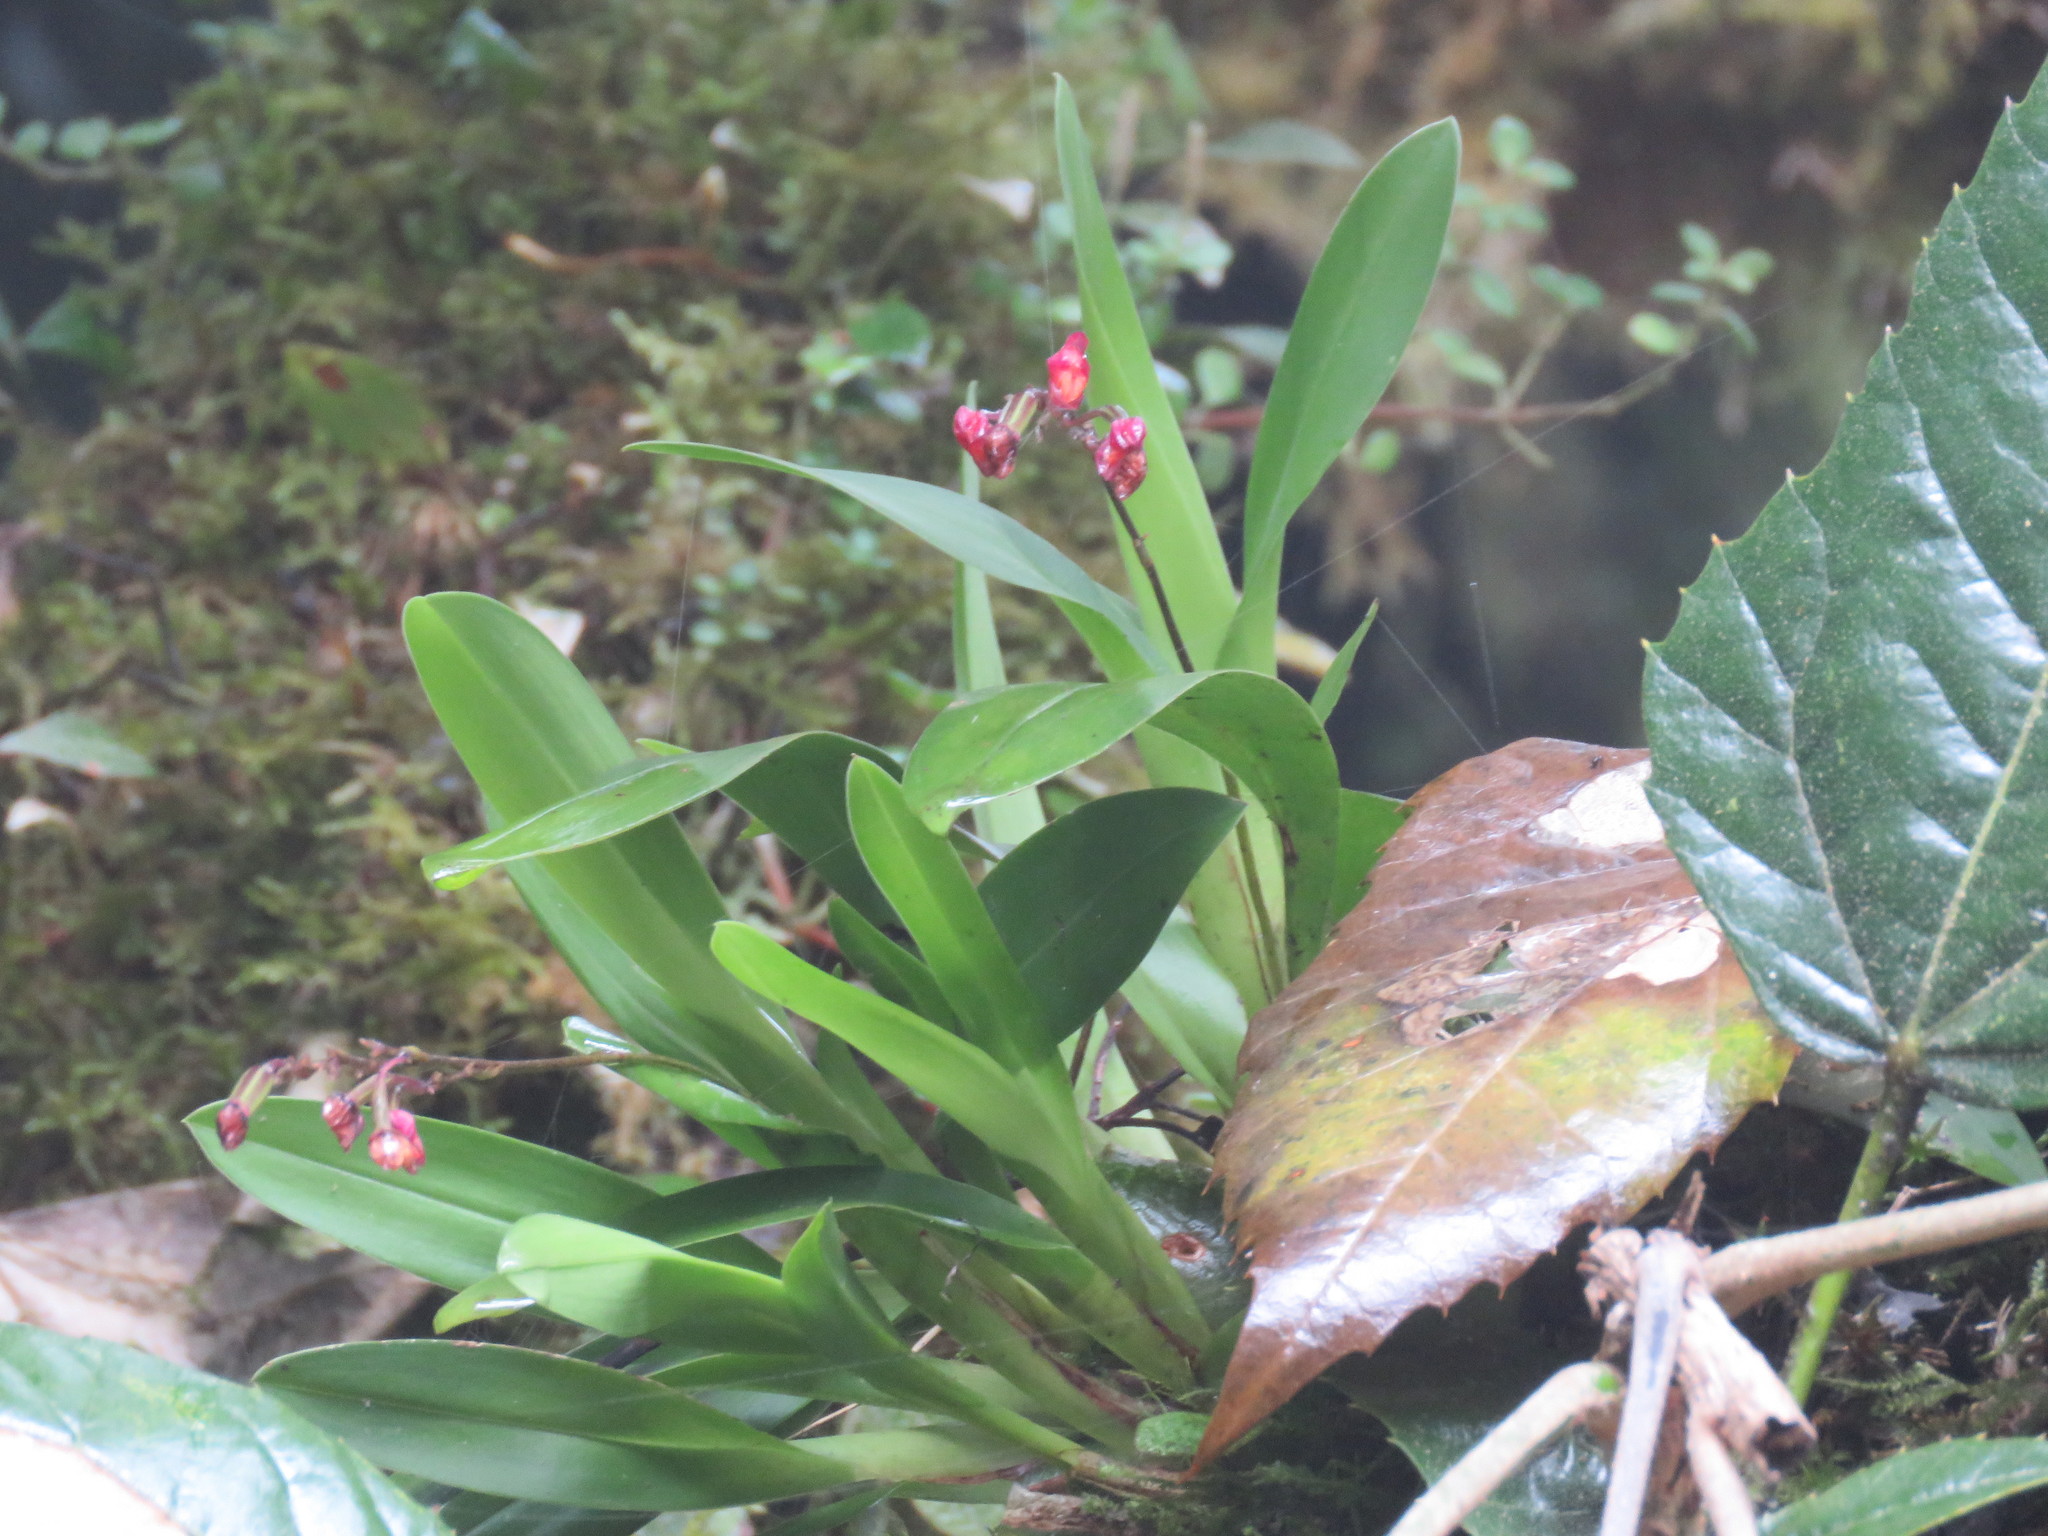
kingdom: Plantae
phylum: Tracheophyta
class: Liliopsida
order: Asparagales
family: Orchidaceae
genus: Cyrtochilum
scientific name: Cyrtochilum rhodoneurum
